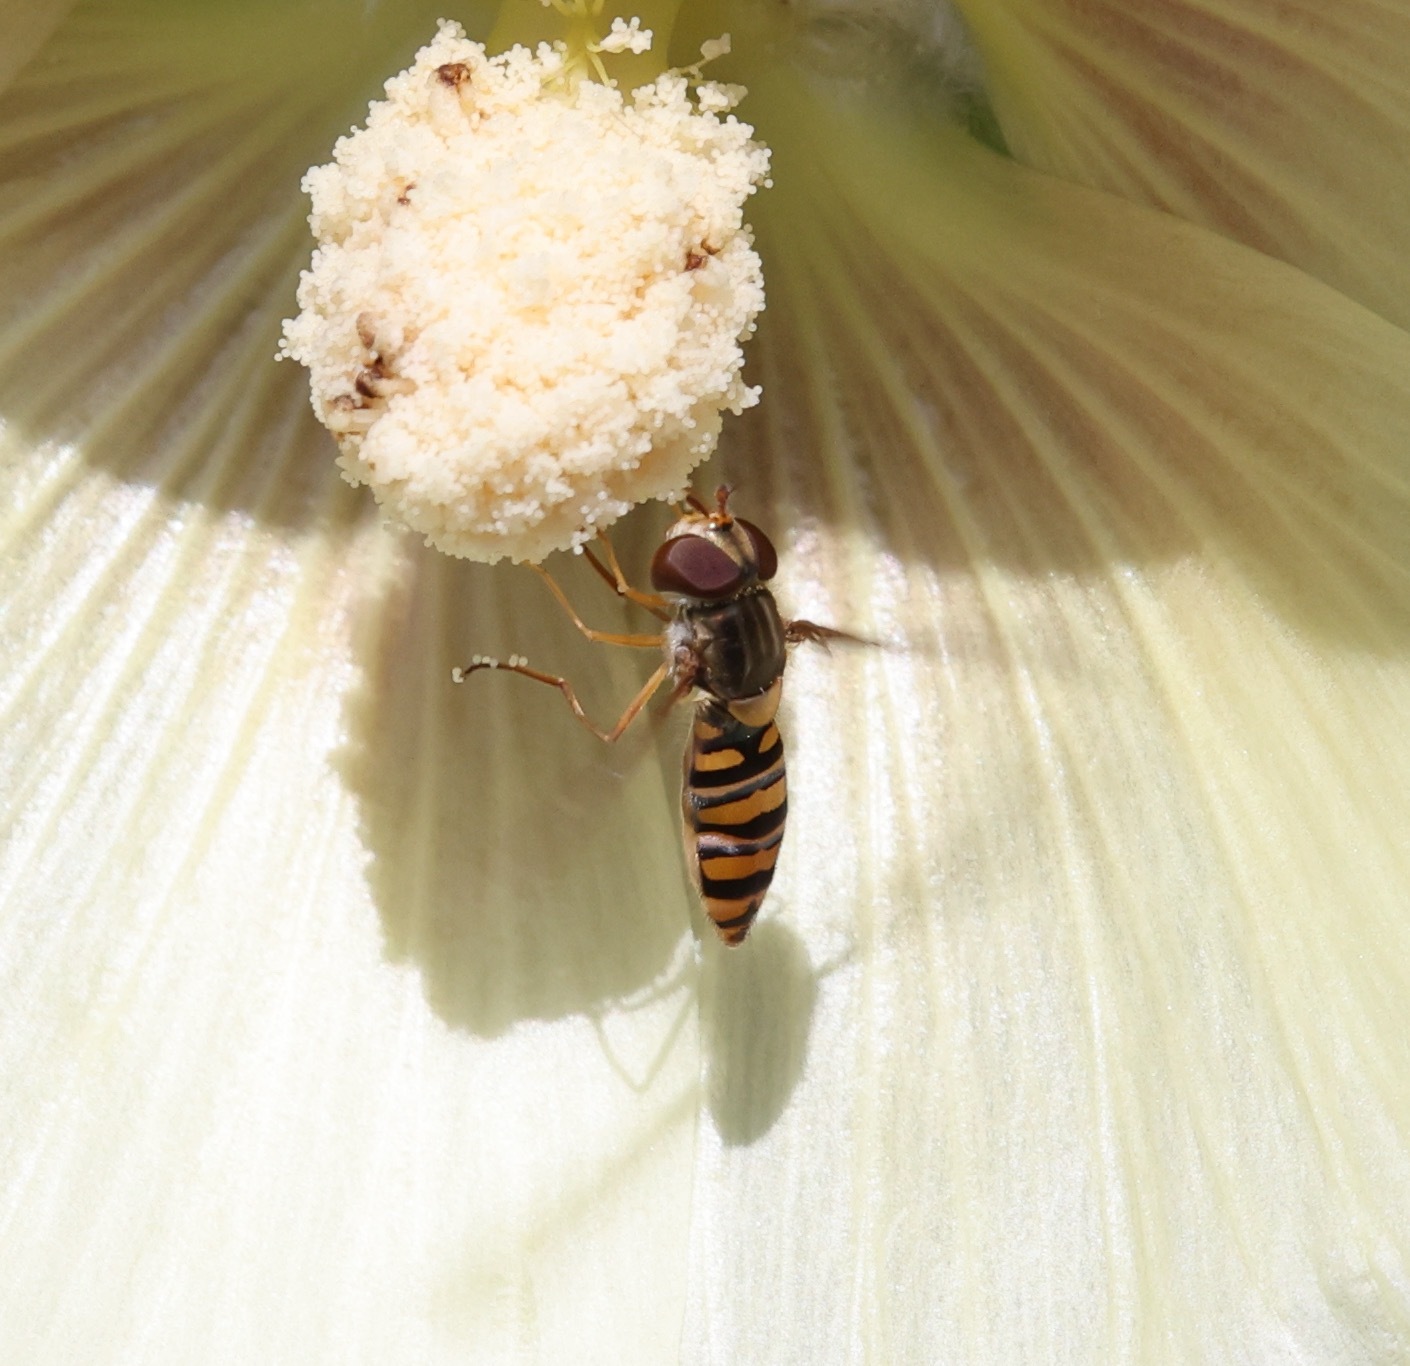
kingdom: Animalia
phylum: Arthropoda
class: Insecta
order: Diptera
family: Syrphidae
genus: Episyrphus
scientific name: Episyrphus balteatus
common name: Marmalade hoverfly
